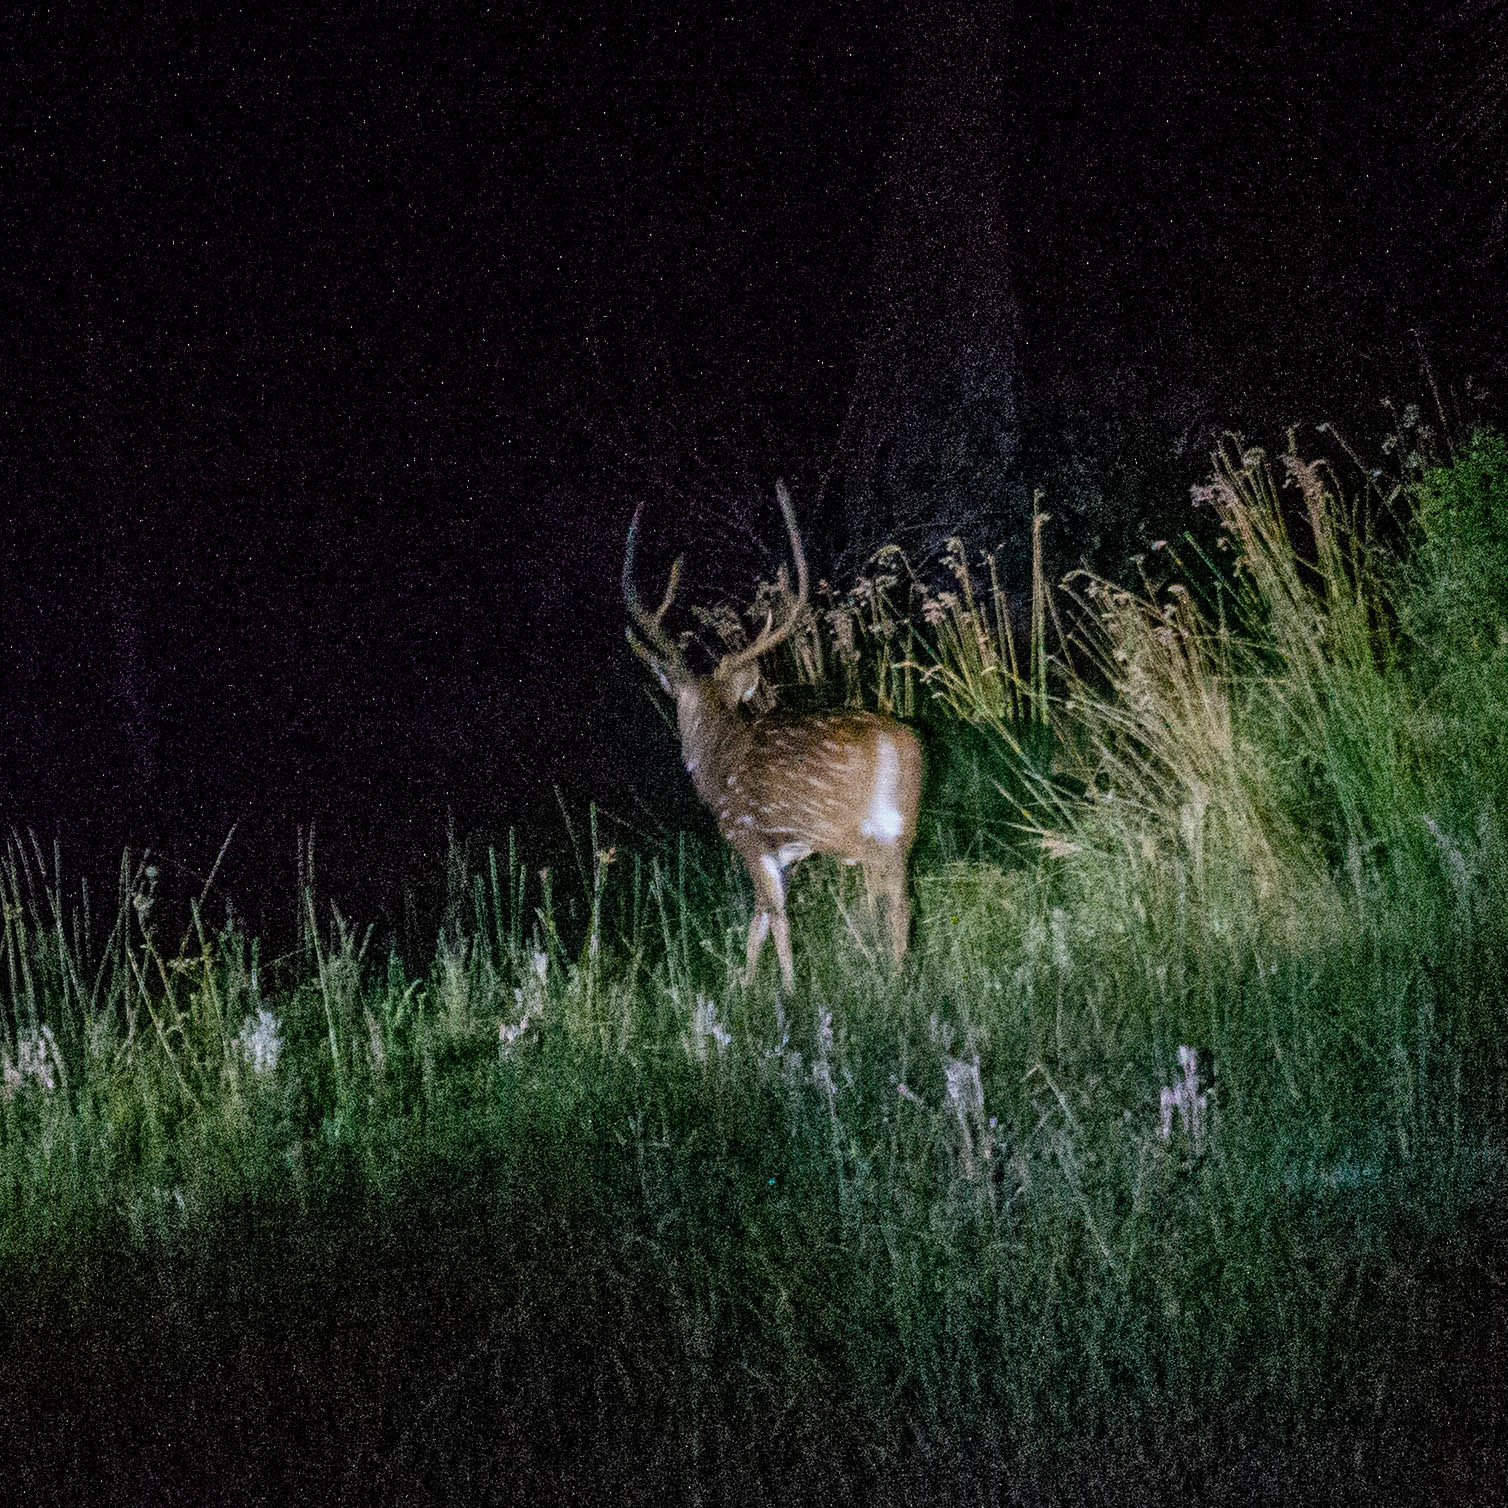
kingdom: Animalia
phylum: Chordata
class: Mammalia
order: Artiodactyla
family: Cervidae
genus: Axis
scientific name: Axis axis
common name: Chital
